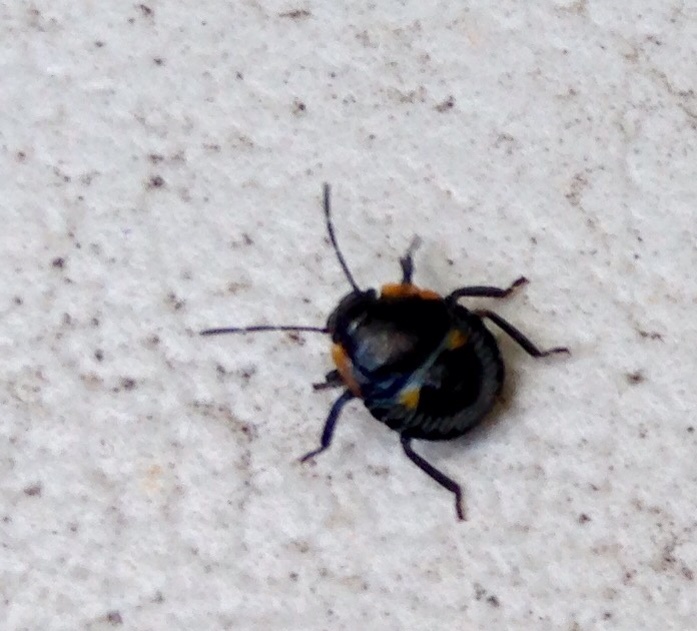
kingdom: Animalia
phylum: Arthropoda
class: Insecta
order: Hemiptera
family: Pentatomidae
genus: Chinavia
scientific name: Chinavia hilaris
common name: Green stink bug
